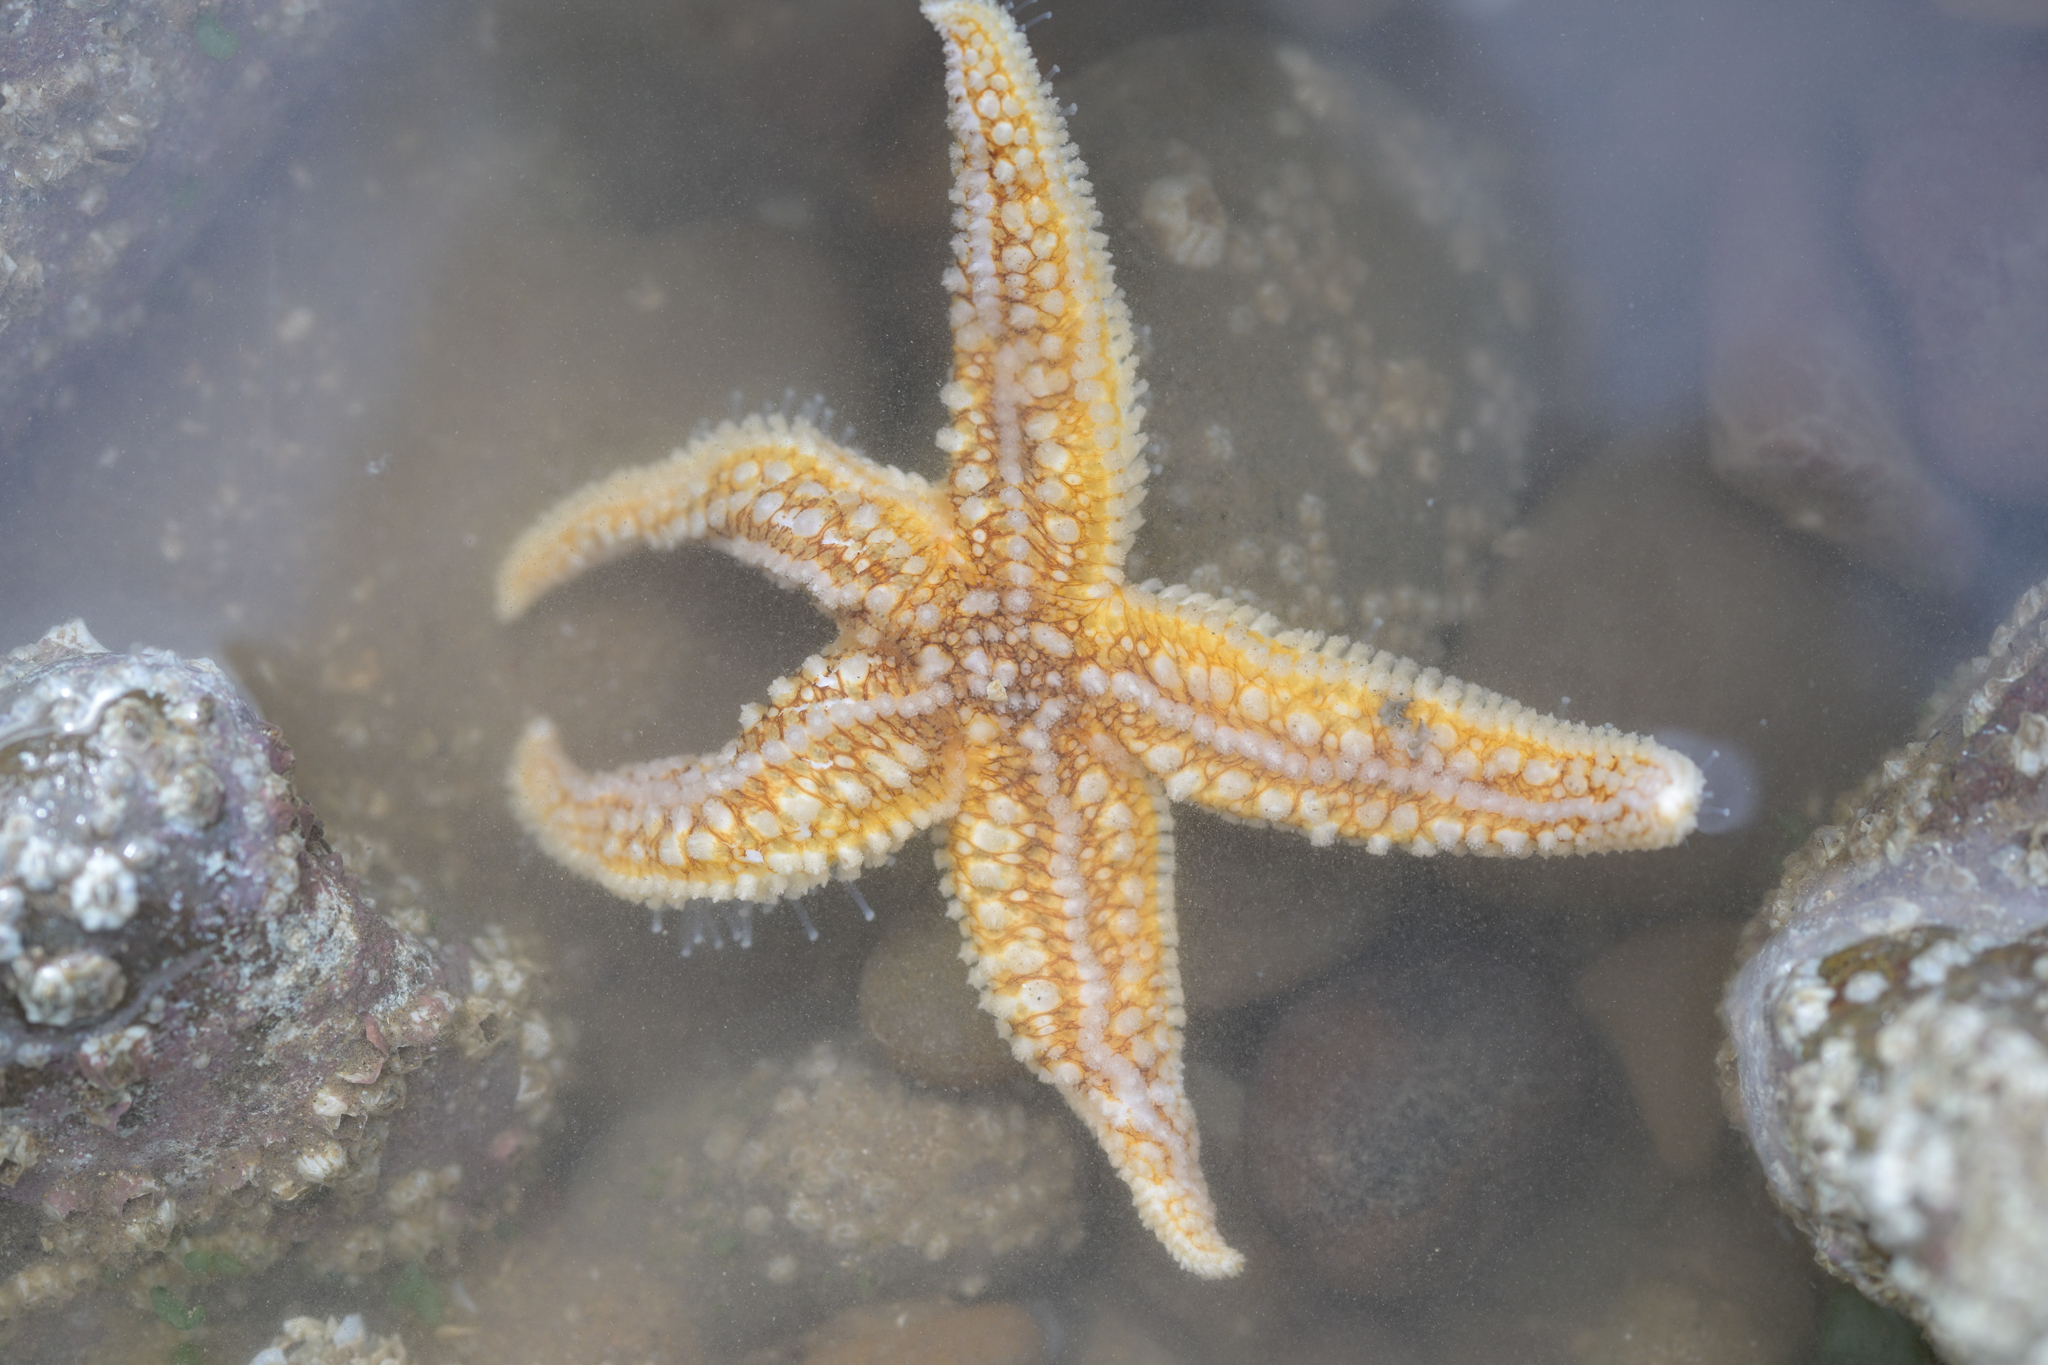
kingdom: Animalia
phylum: Echinodermata
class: Asteroidea
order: Forcipulatida
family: Asteriidae
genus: Asterias
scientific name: Asterias rubens
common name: Common starfish
